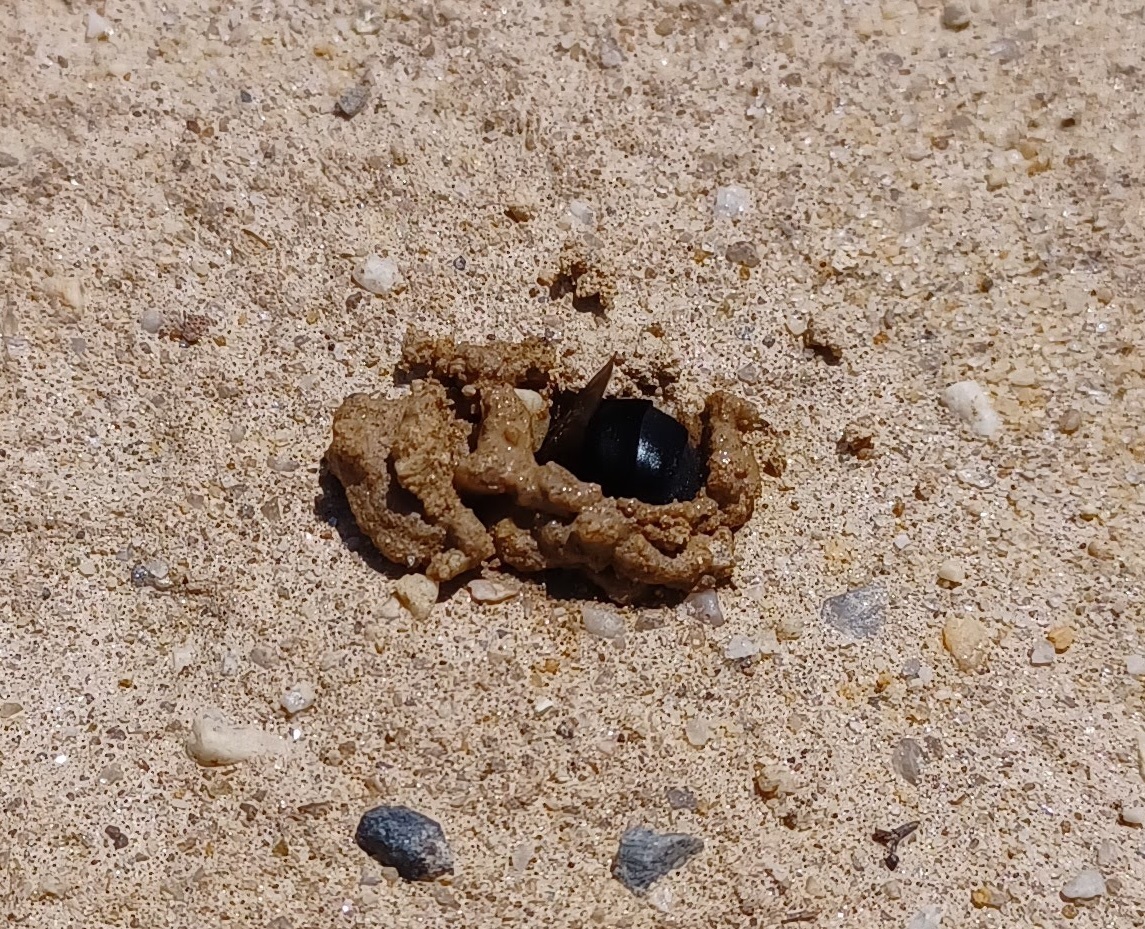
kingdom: Animalia
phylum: Arthropoda
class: Insecta
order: Hymenoptera
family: Apidae
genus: Ptilothrix
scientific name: Ptilothrix bombiformis
